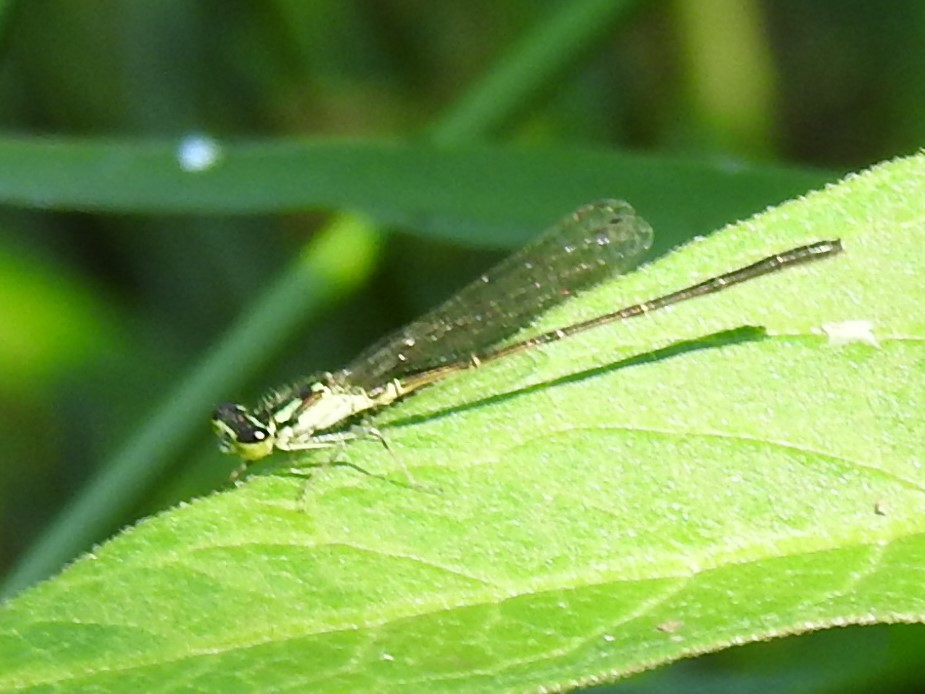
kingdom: Animalia
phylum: Arthropoda
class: Insecta
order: Odonata
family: Coenagrionidae
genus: Ischnura
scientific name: Ischnura posita
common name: Fragile forktail
